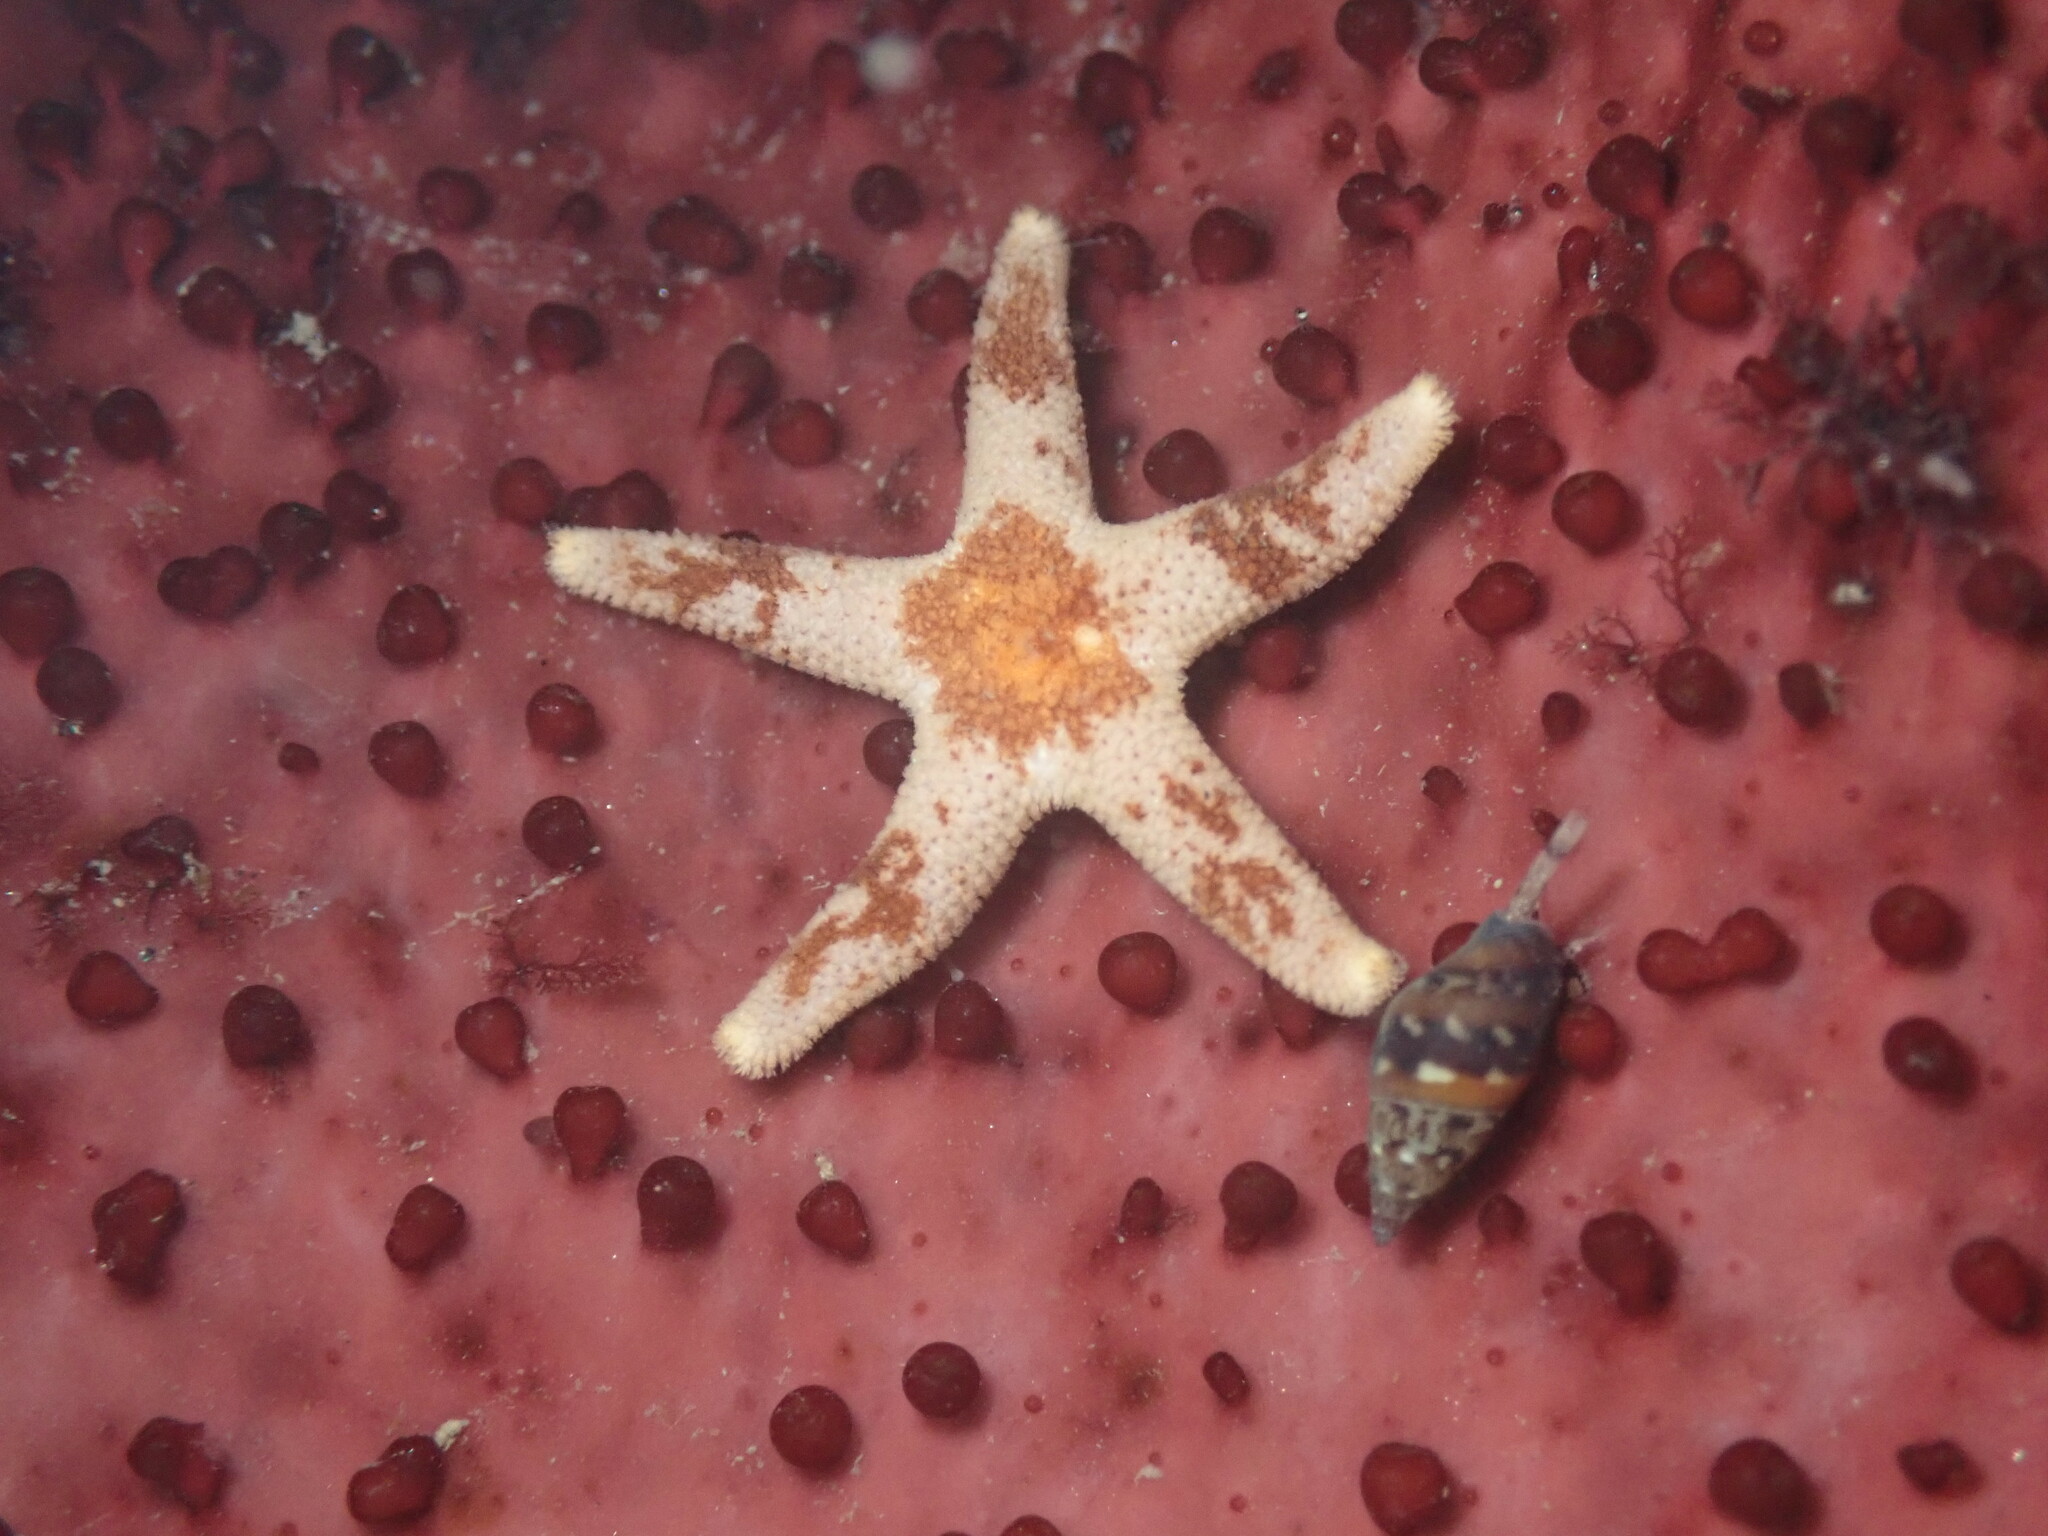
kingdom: Animalia
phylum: Echinodermata
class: Asteroidea
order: Spinulosida
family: Echinasteridae
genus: Henricia
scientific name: Henricia pumila
